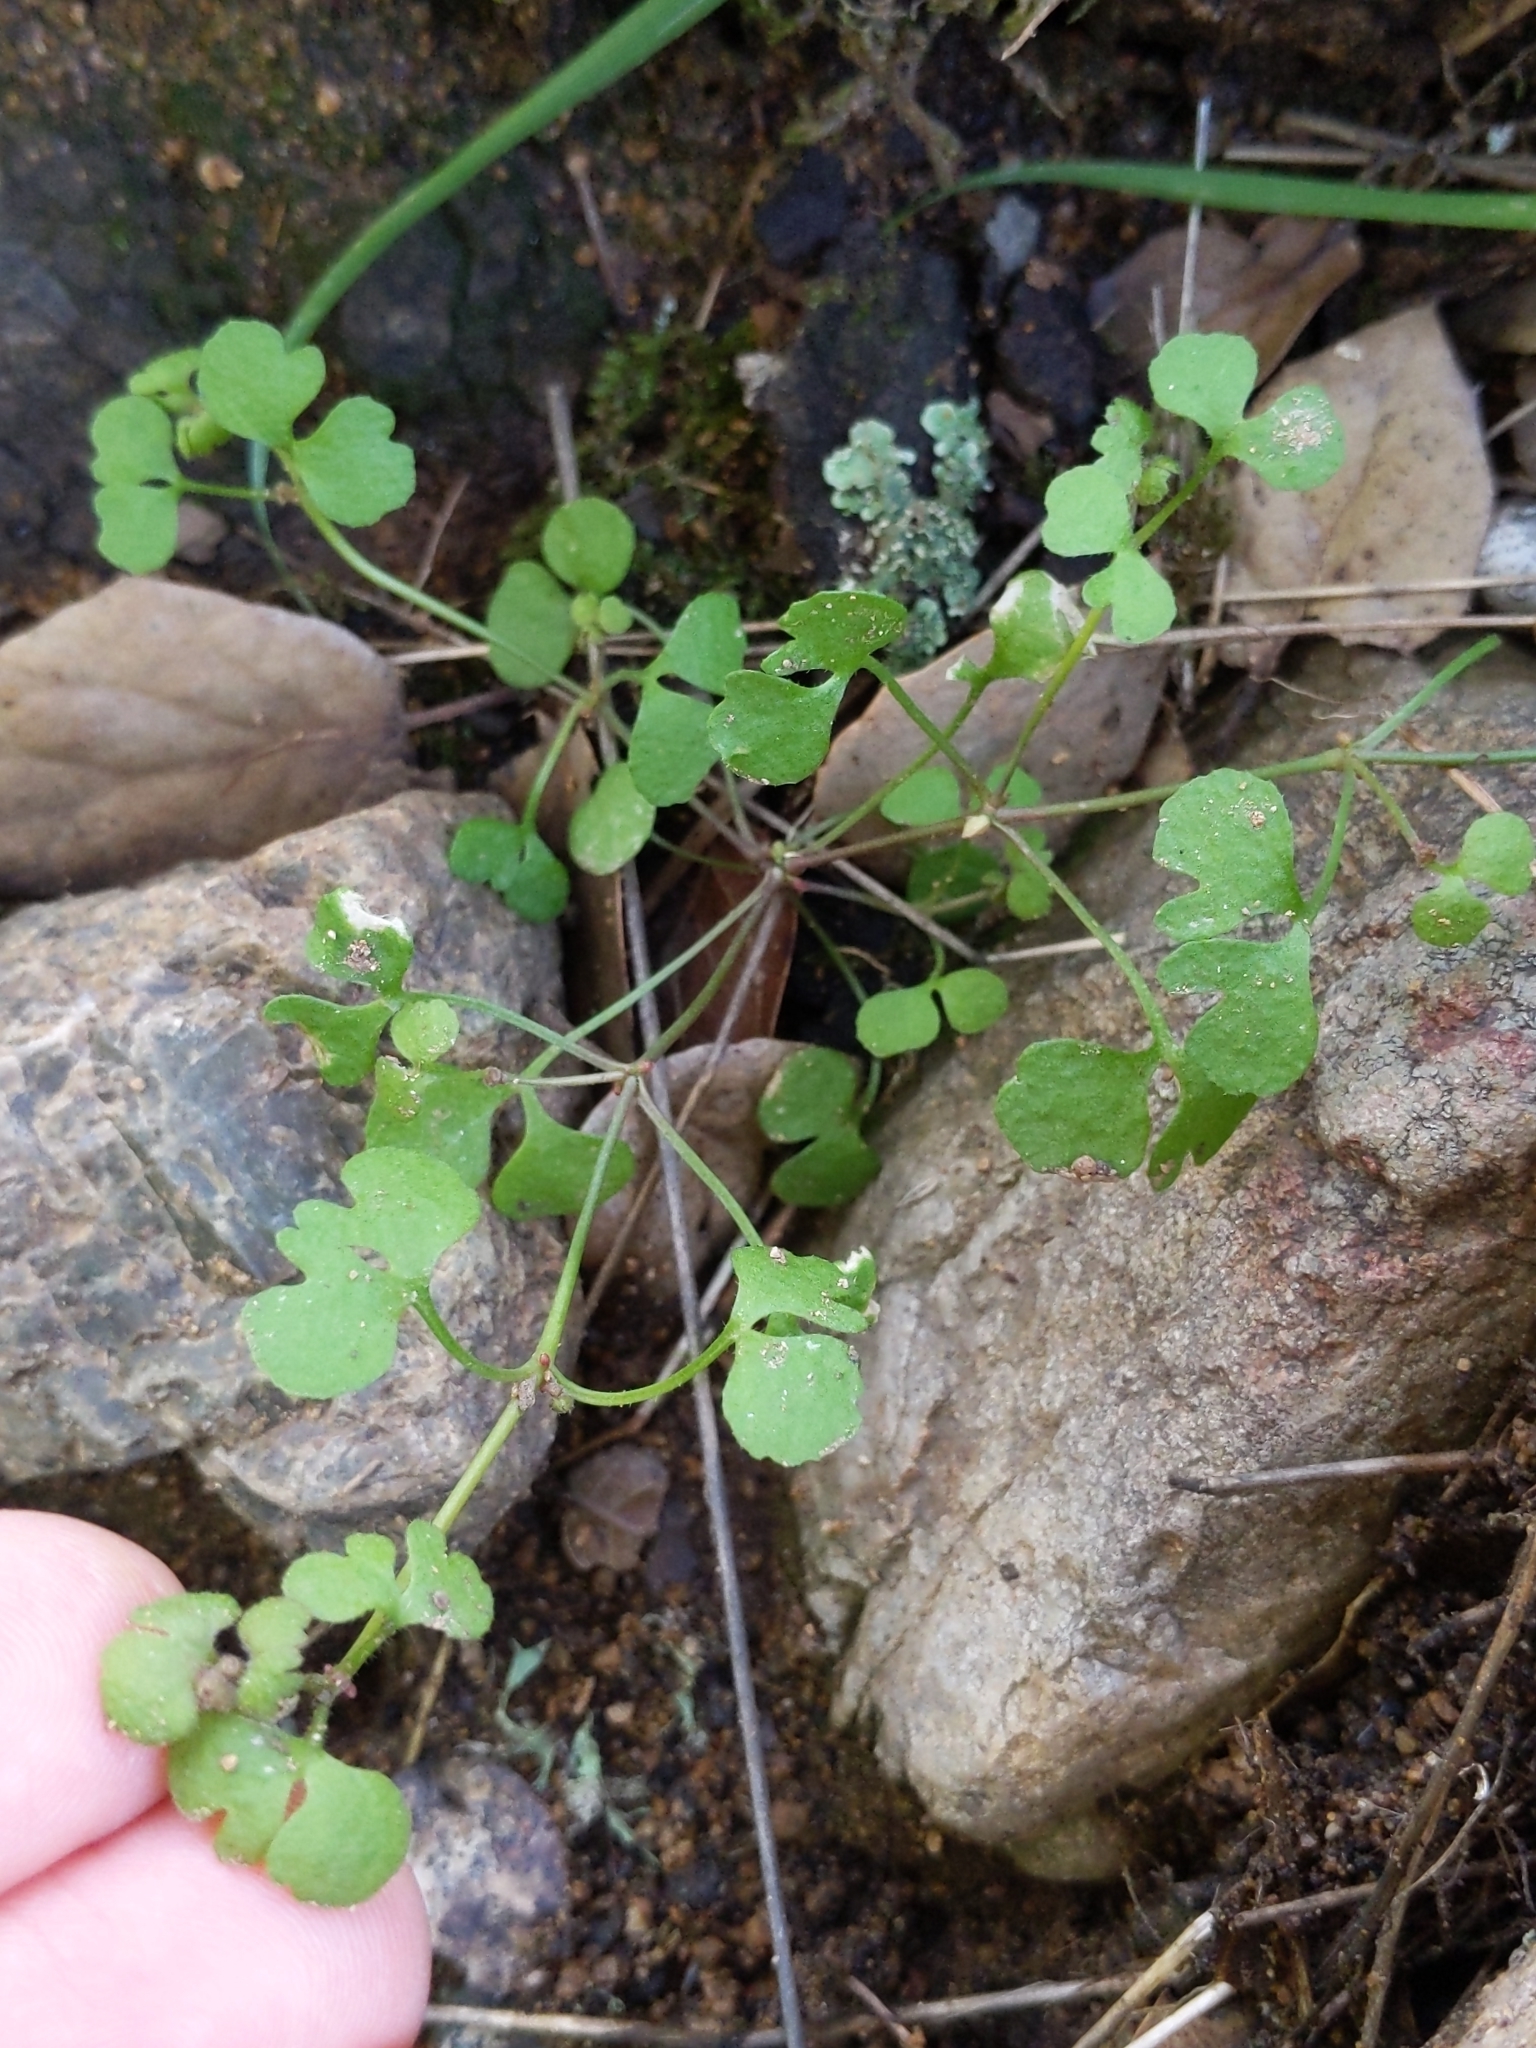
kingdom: Plantae
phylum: Tracheophyta
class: Magnoliopsida
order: Caryophyllales
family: Polygonaceae
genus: Pterostegia
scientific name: Pterostegia drymarioides
